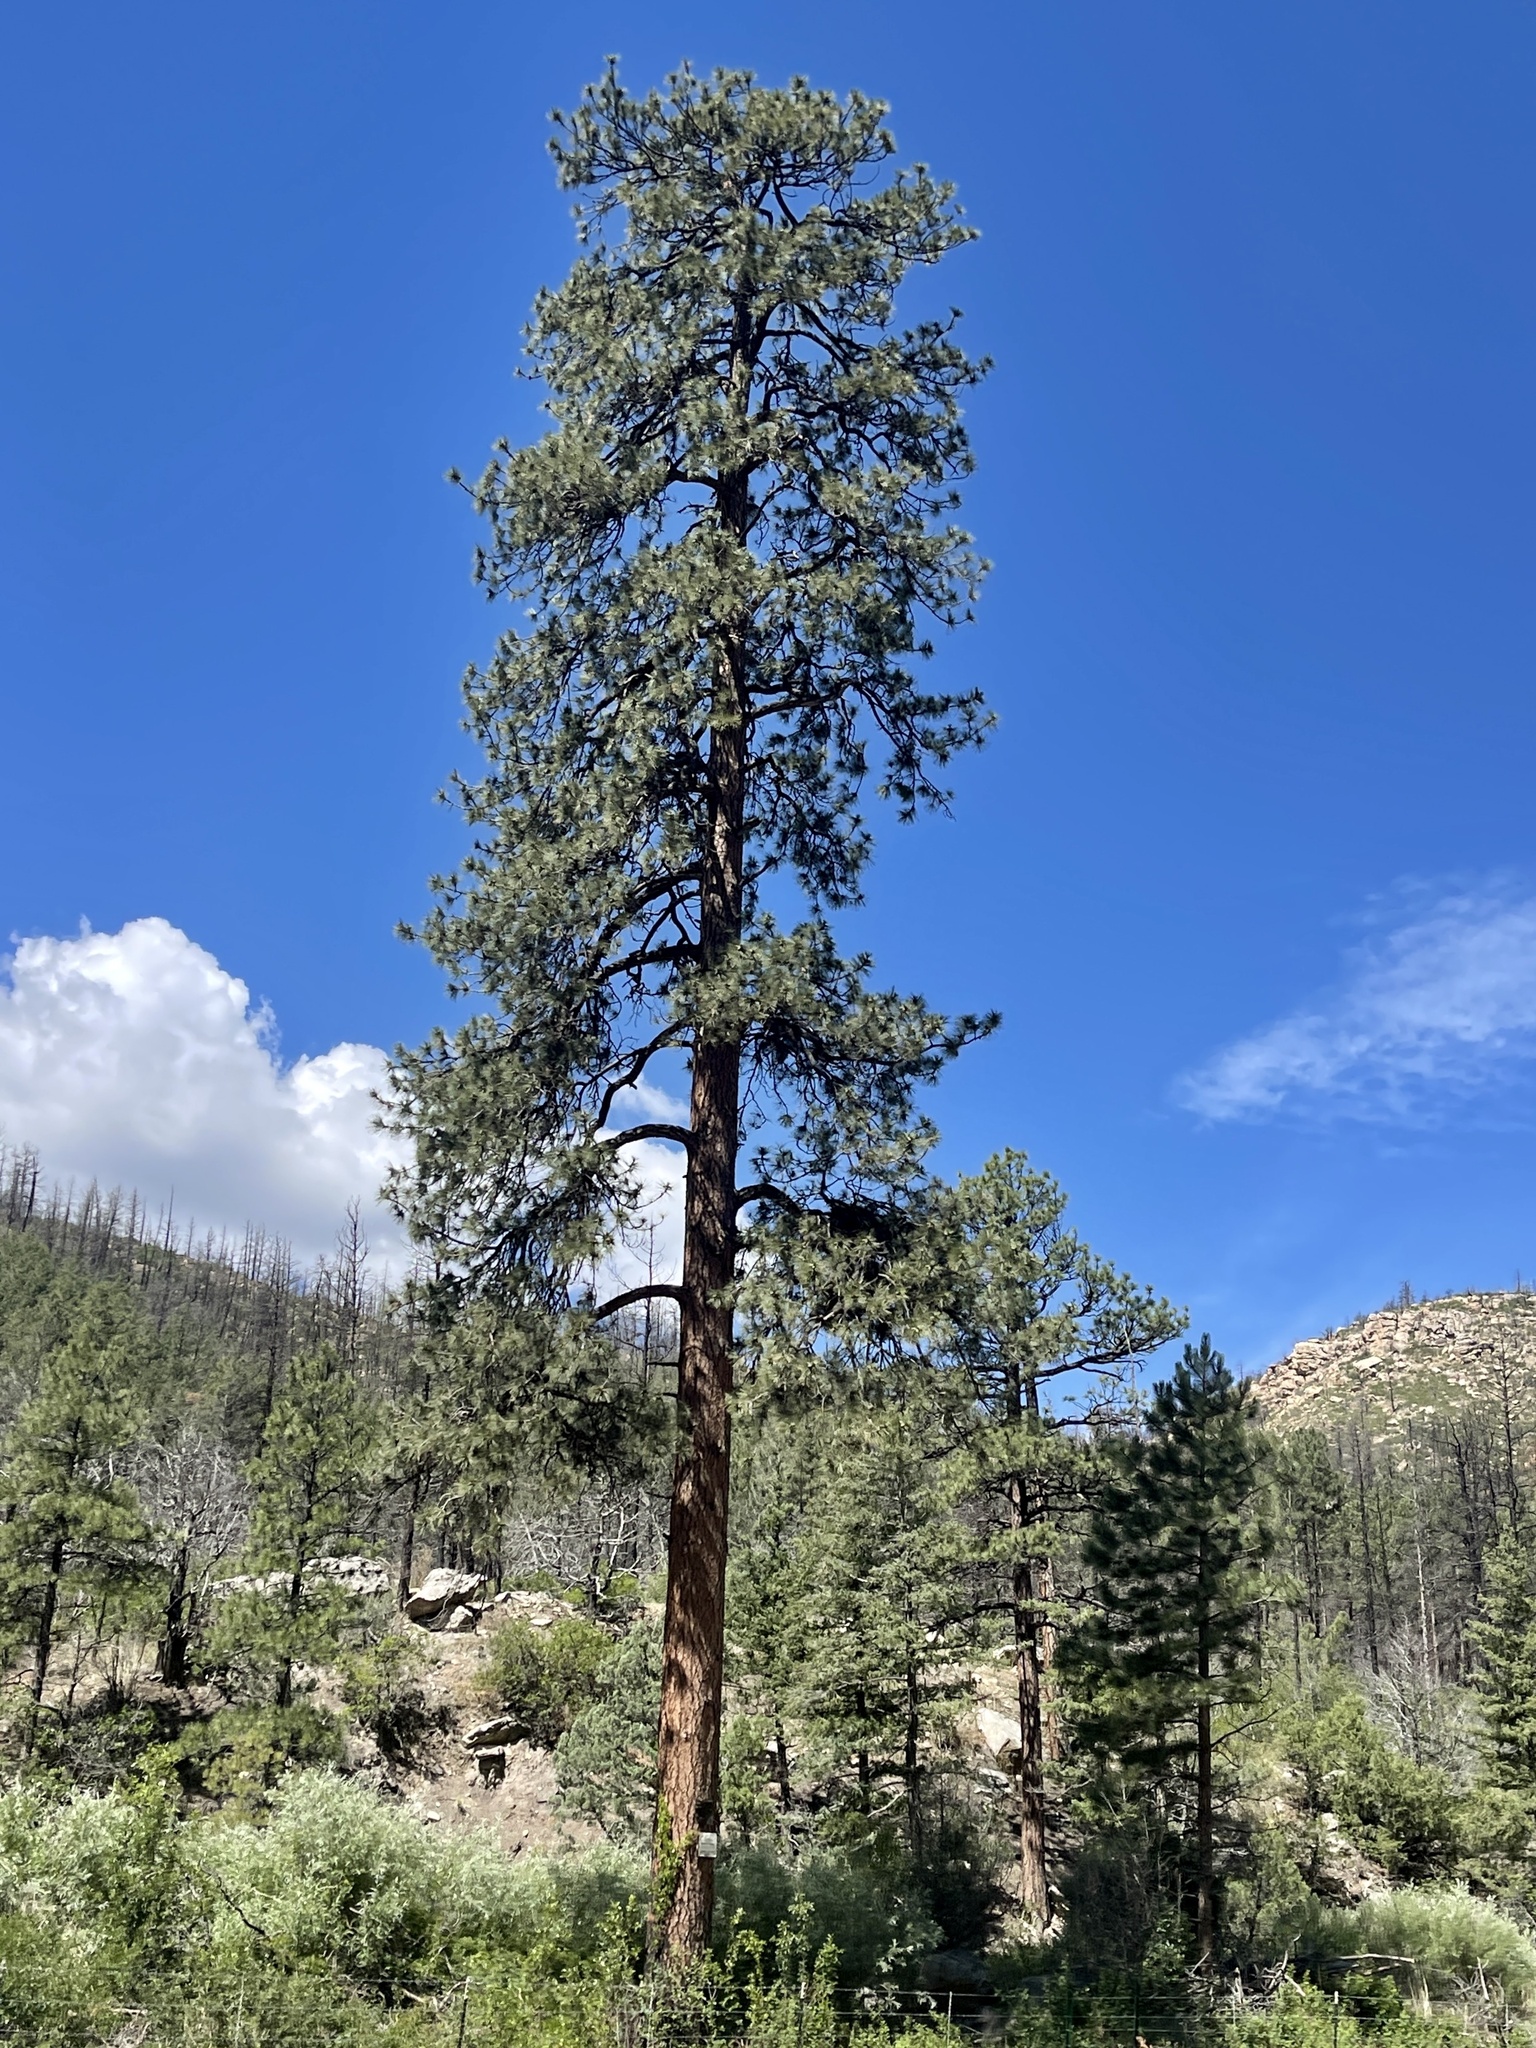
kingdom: Plantae
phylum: Tracheophyta
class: Pinopsida
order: Pinales
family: Pinaceae
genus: Pinus
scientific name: Pinus ponderosa
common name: Western yellow-pine
